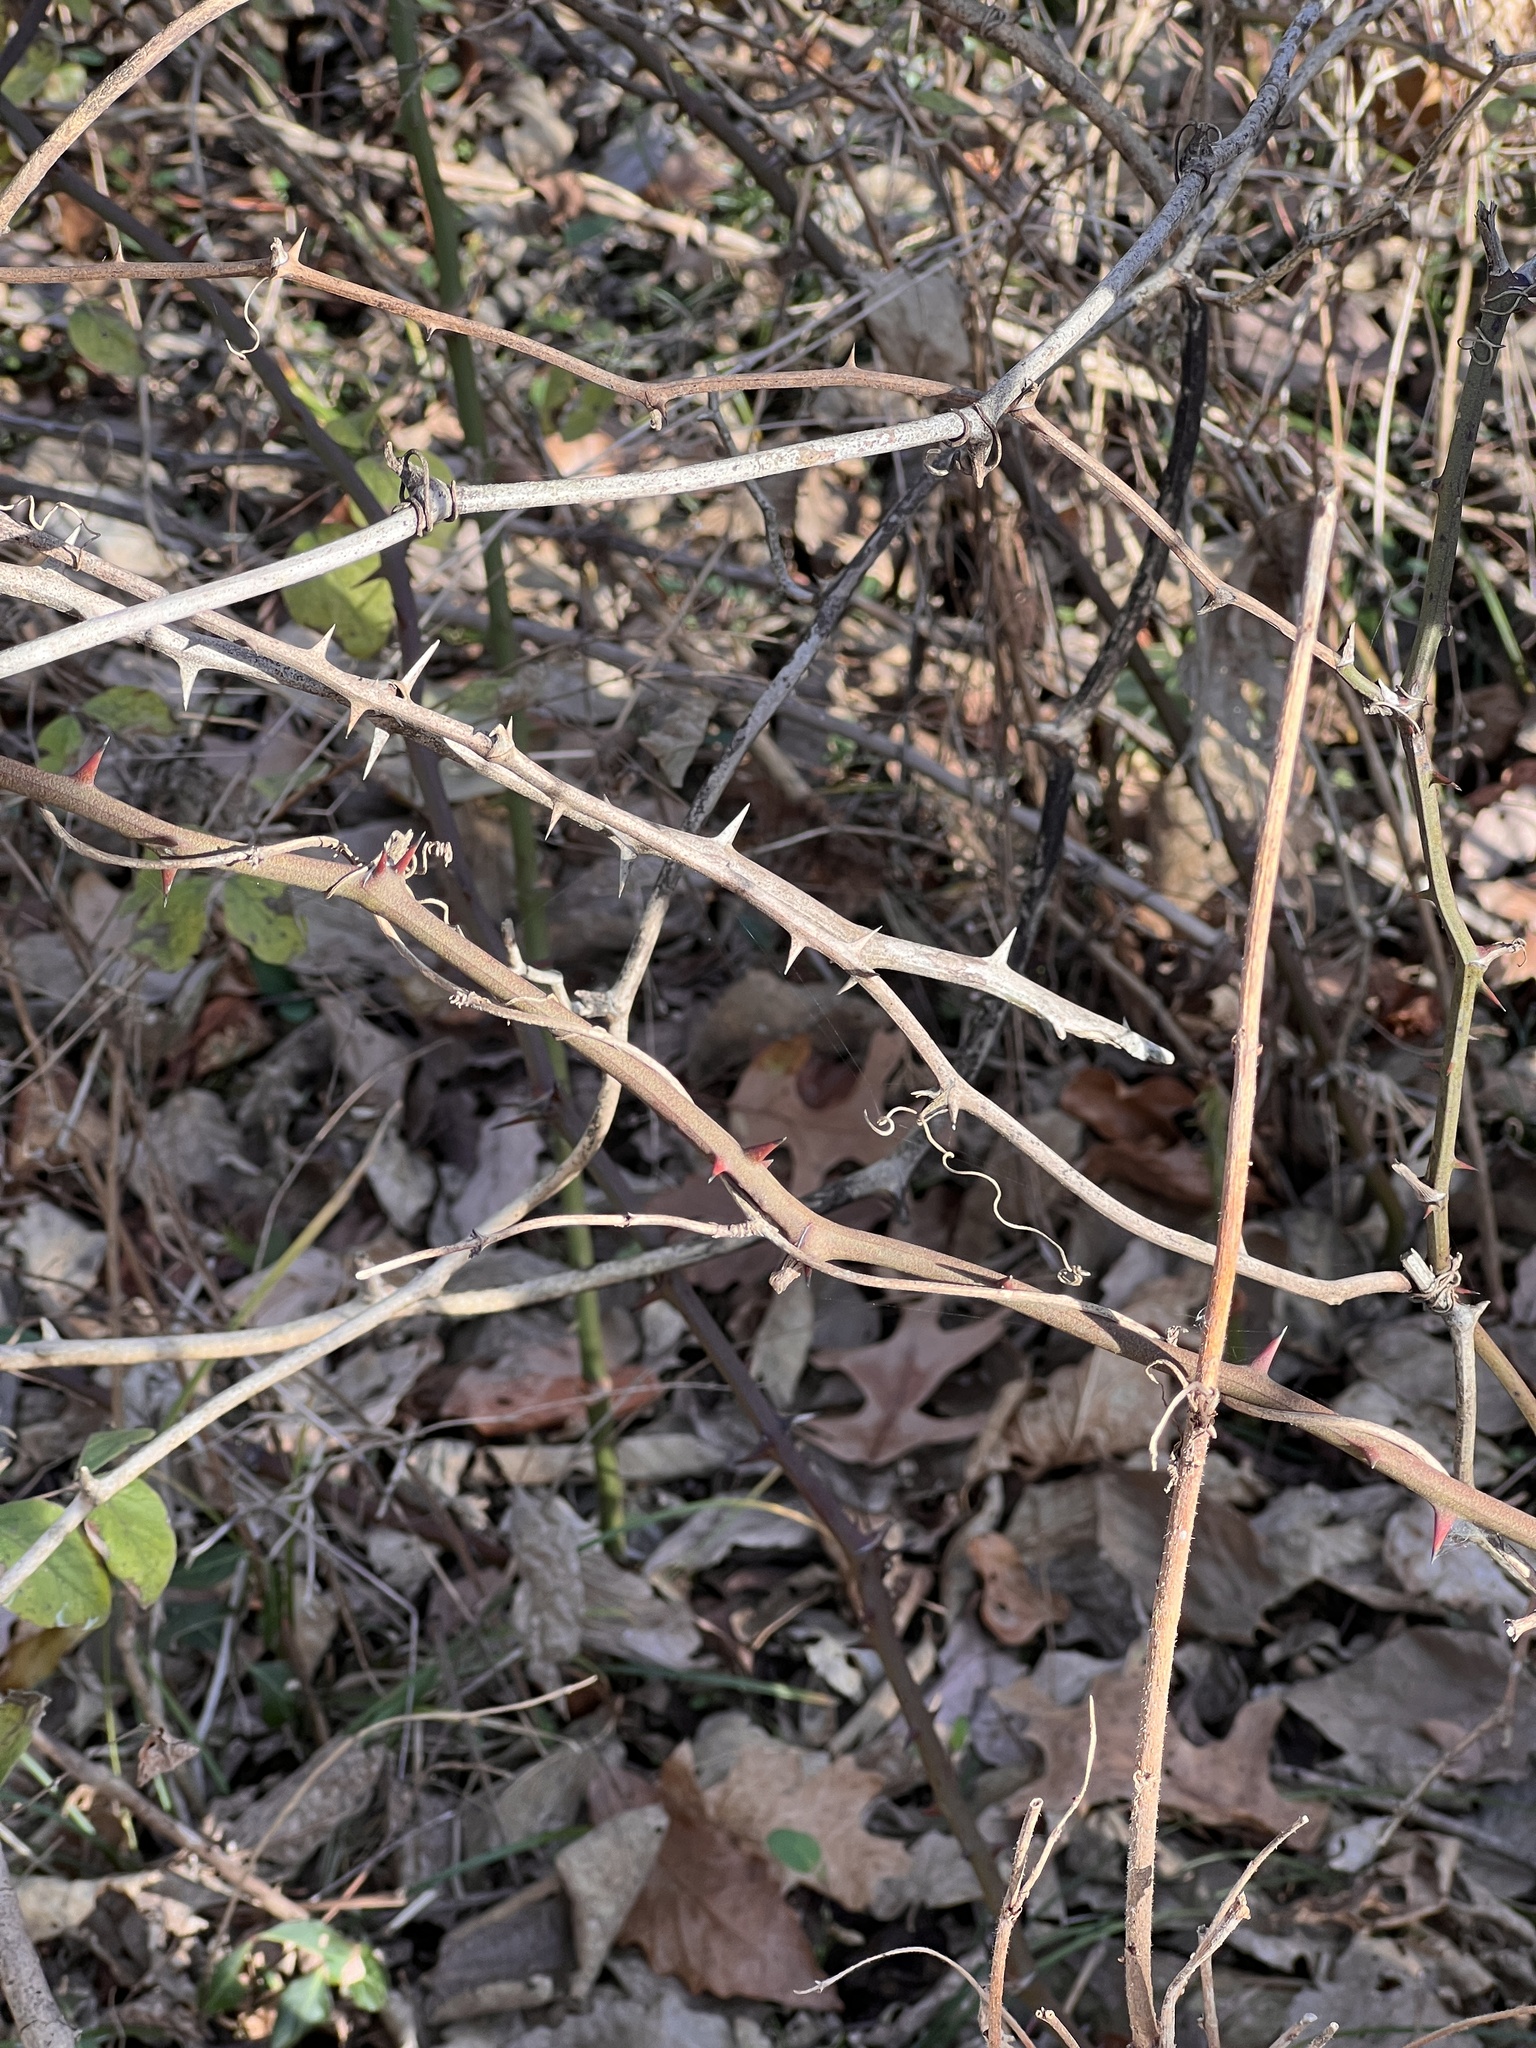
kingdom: Plantae
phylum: Tracheophyta
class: Liliopsida
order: Liliales
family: Smilacaceae
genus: Smilax
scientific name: Smilax rotundifolia
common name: Bullbriar
